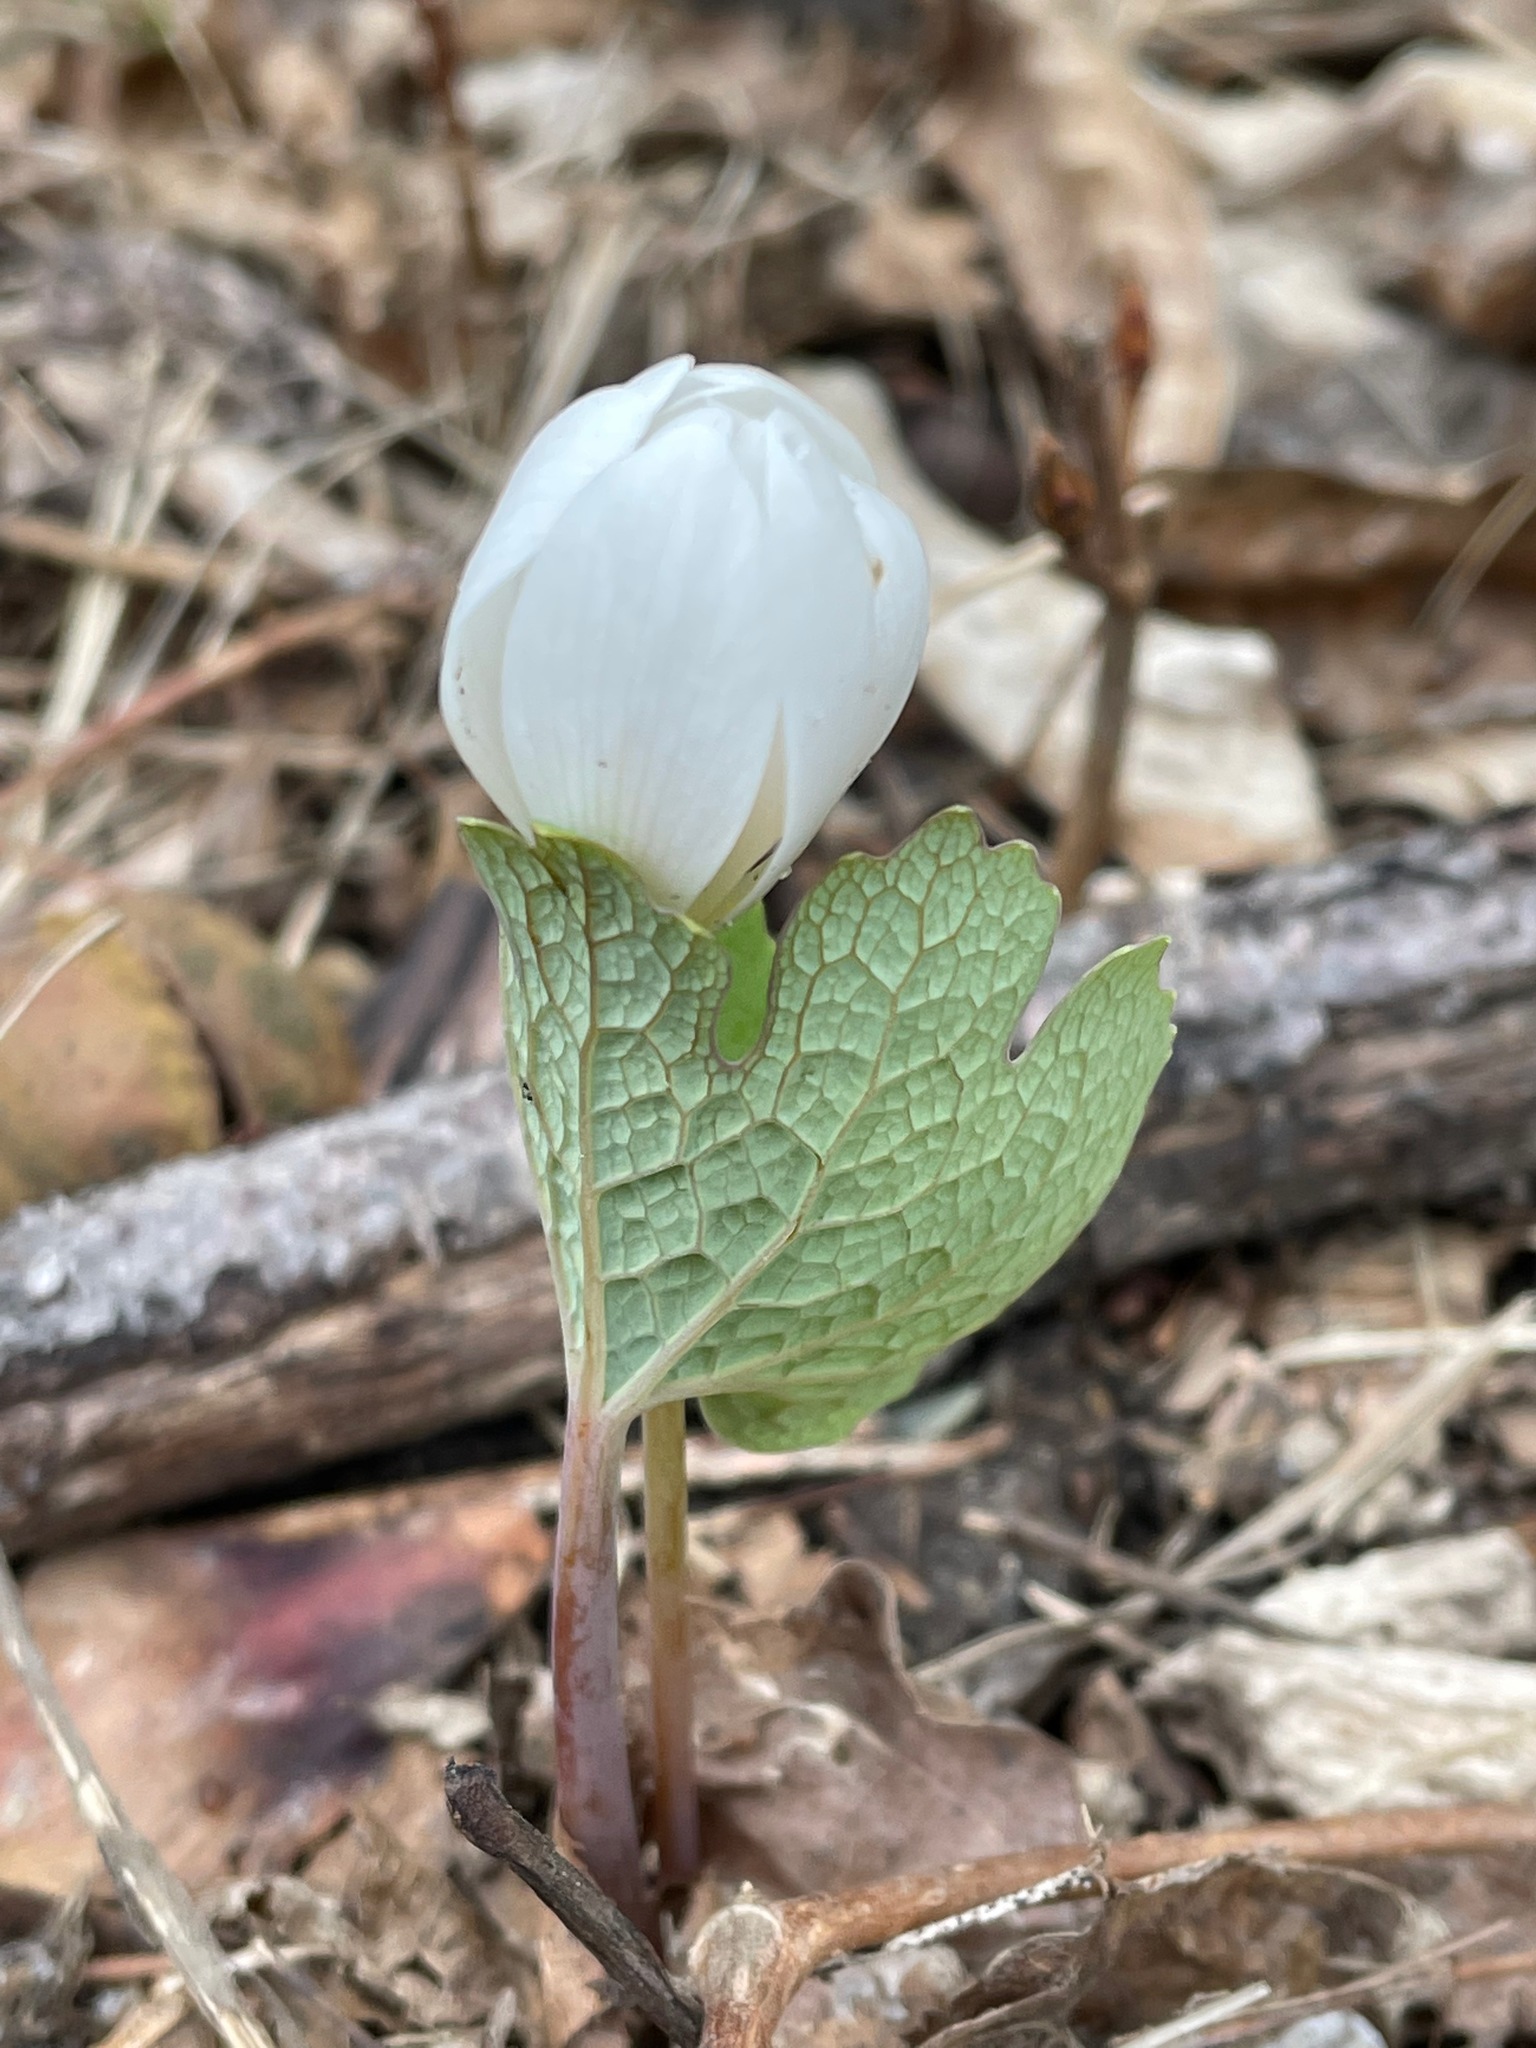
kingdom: Plantae
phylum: Tracheophyta
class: Magnoliopsida
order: Ranunculales
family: Papaveraceae
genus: Sanguinaria
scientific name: Sanguinaria canadensis
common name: Bloodroot
